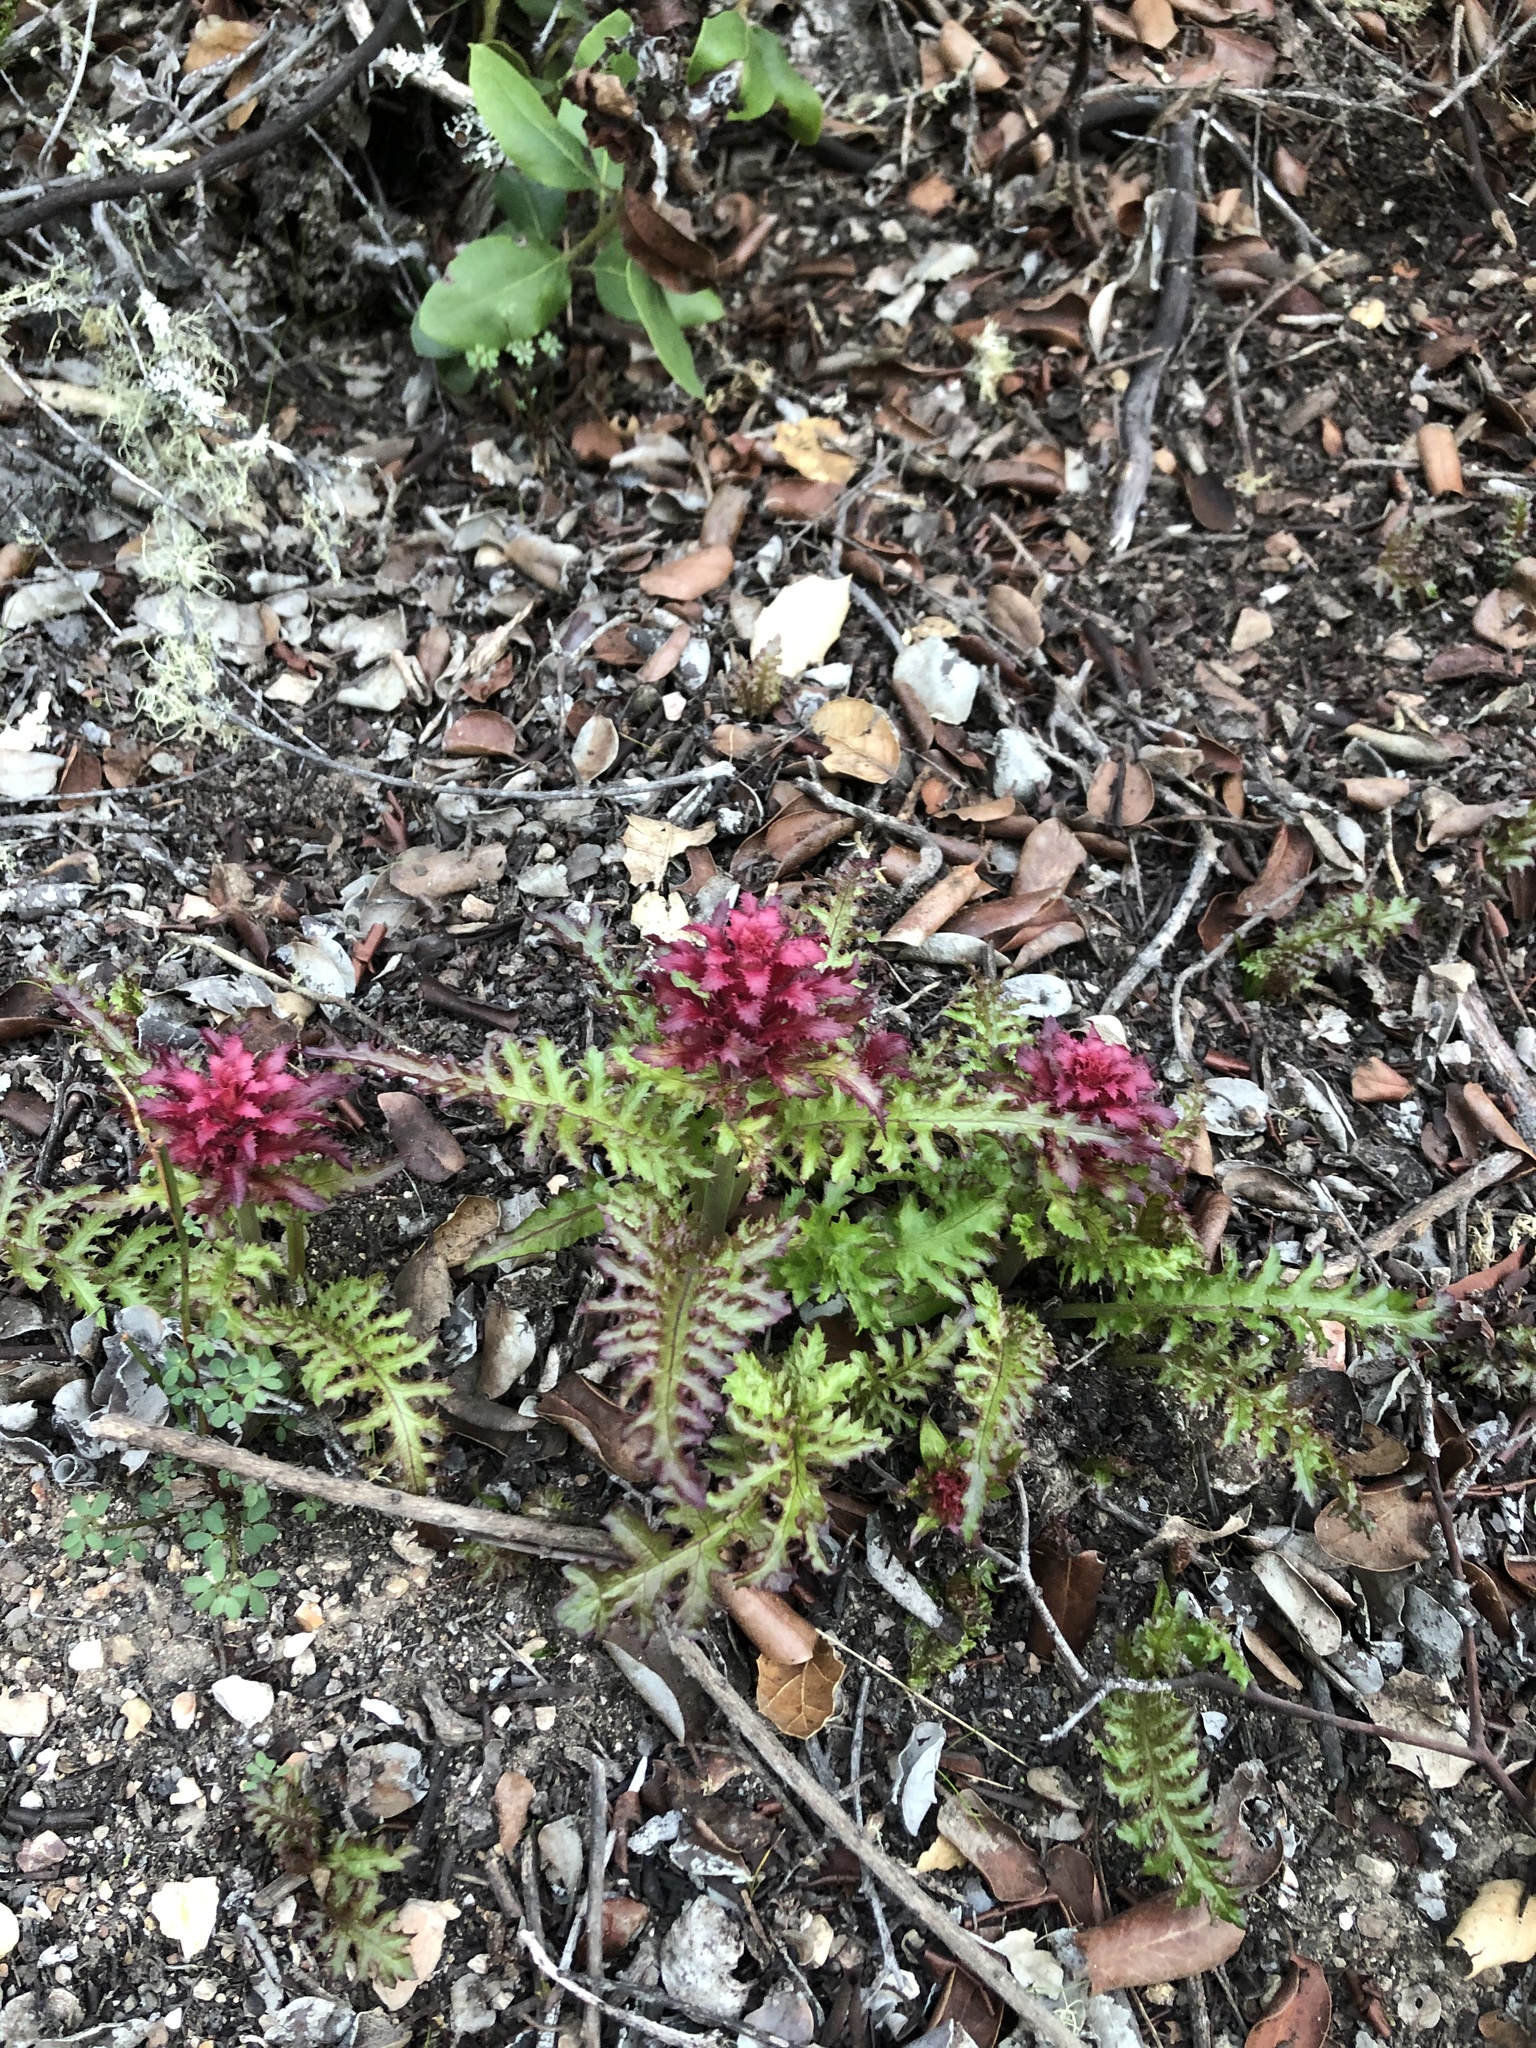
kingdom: Plantae
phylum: Tracheophyta
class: Magnoliopsida
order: Lamiales
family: Orobanchaceae
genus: Pedicularis
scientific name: Pedicularis densiflora
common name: Indian warrior
